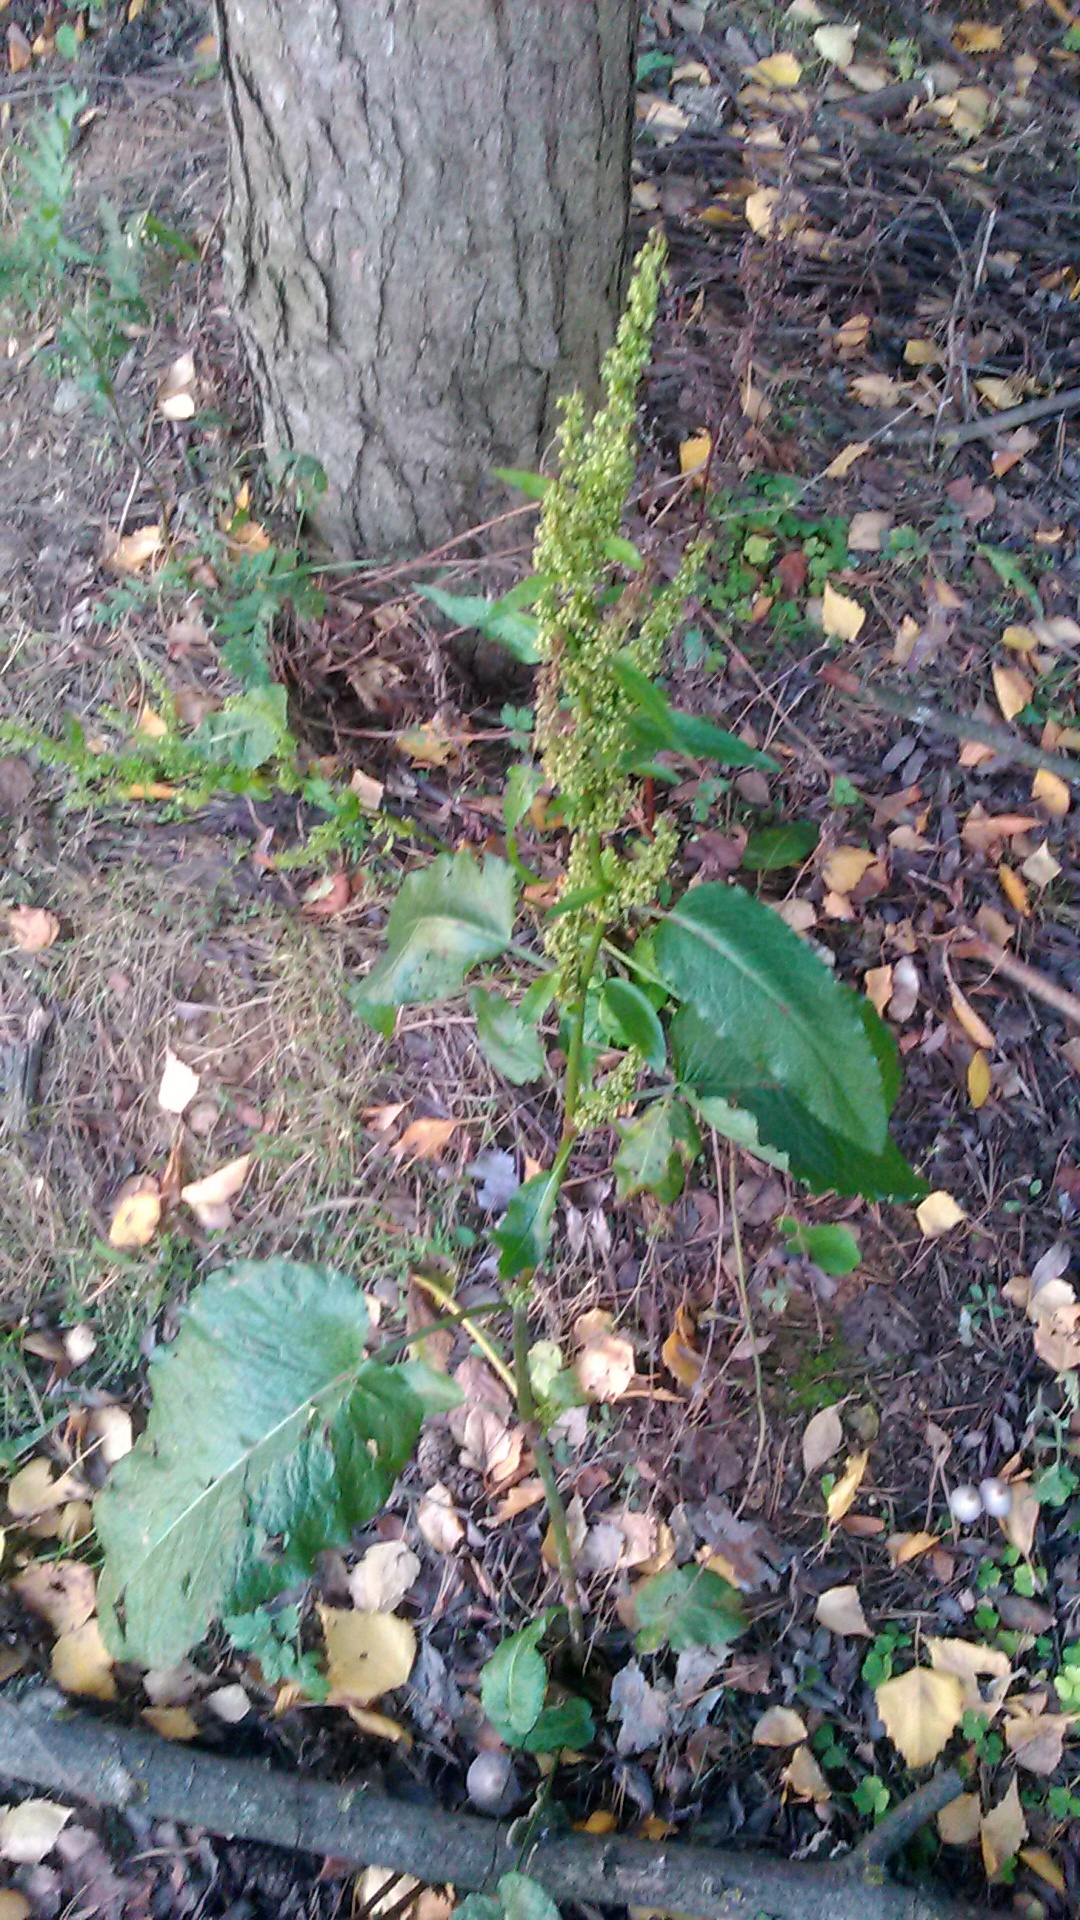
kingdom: Plantae
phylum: Tracheophyta
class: Magnoliopsida
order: Caryophyllales
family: Polygonaceae
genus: Rumex
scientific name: Rumex obtusifolius
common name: Bitter dock
